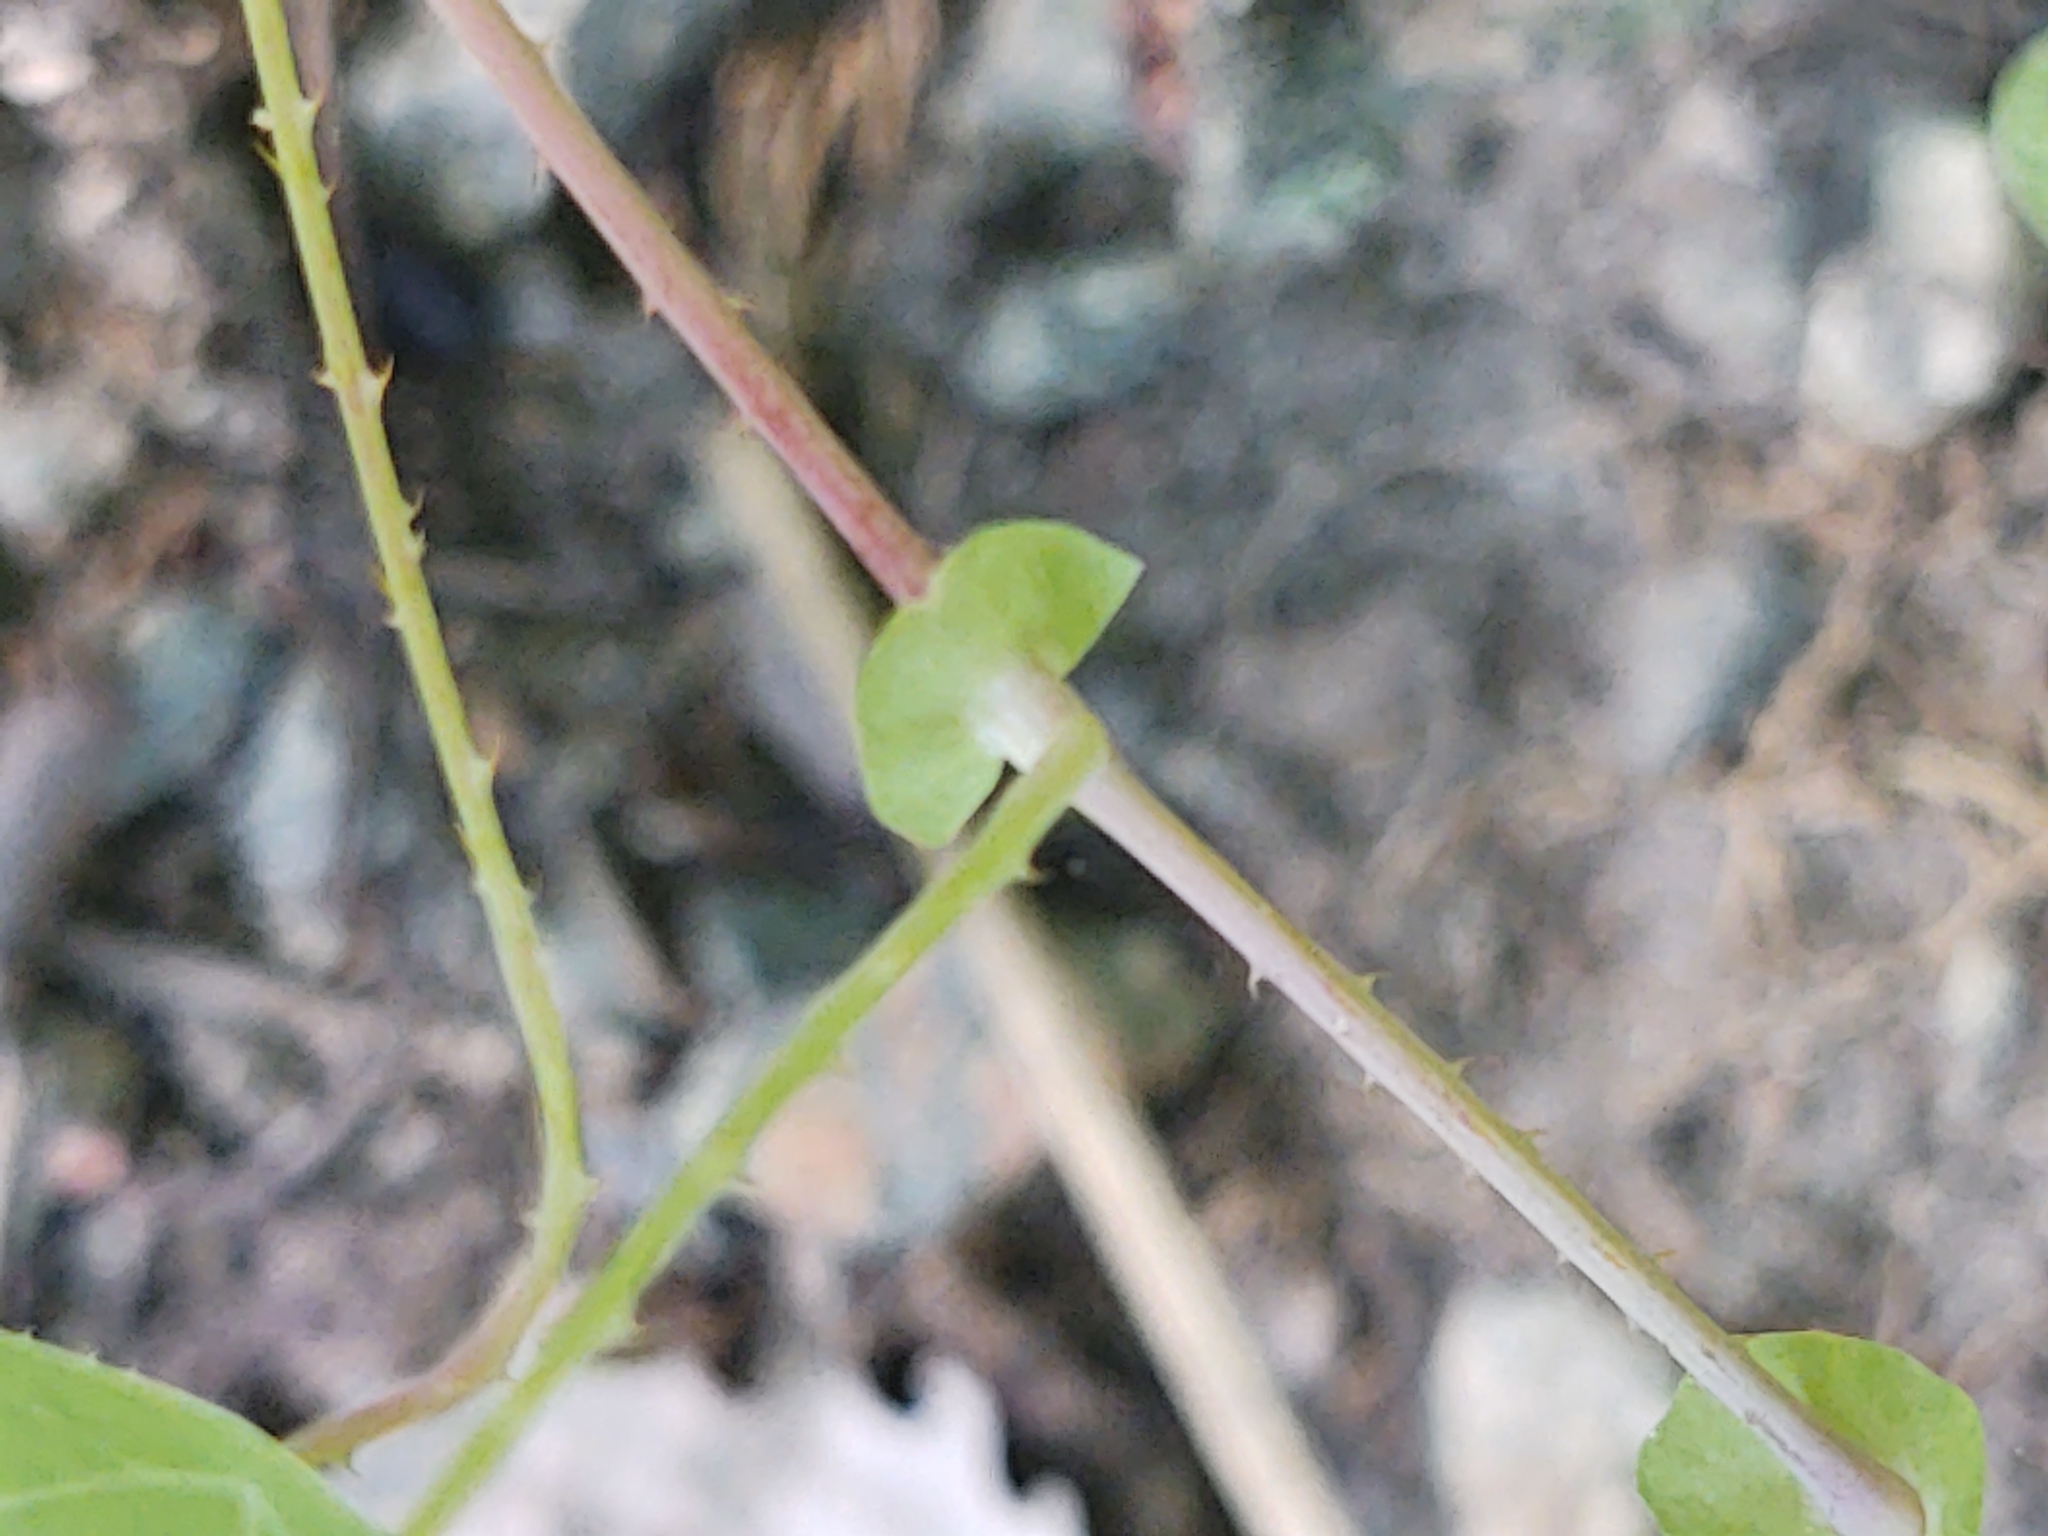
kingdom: Plantae
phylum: Tracheophyta
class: Magnoliopsida
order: Caryophyllales
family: Polygonaceae
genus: Persicaria
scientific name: Persicaria perfoliata
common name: Asiatic tearthumb
